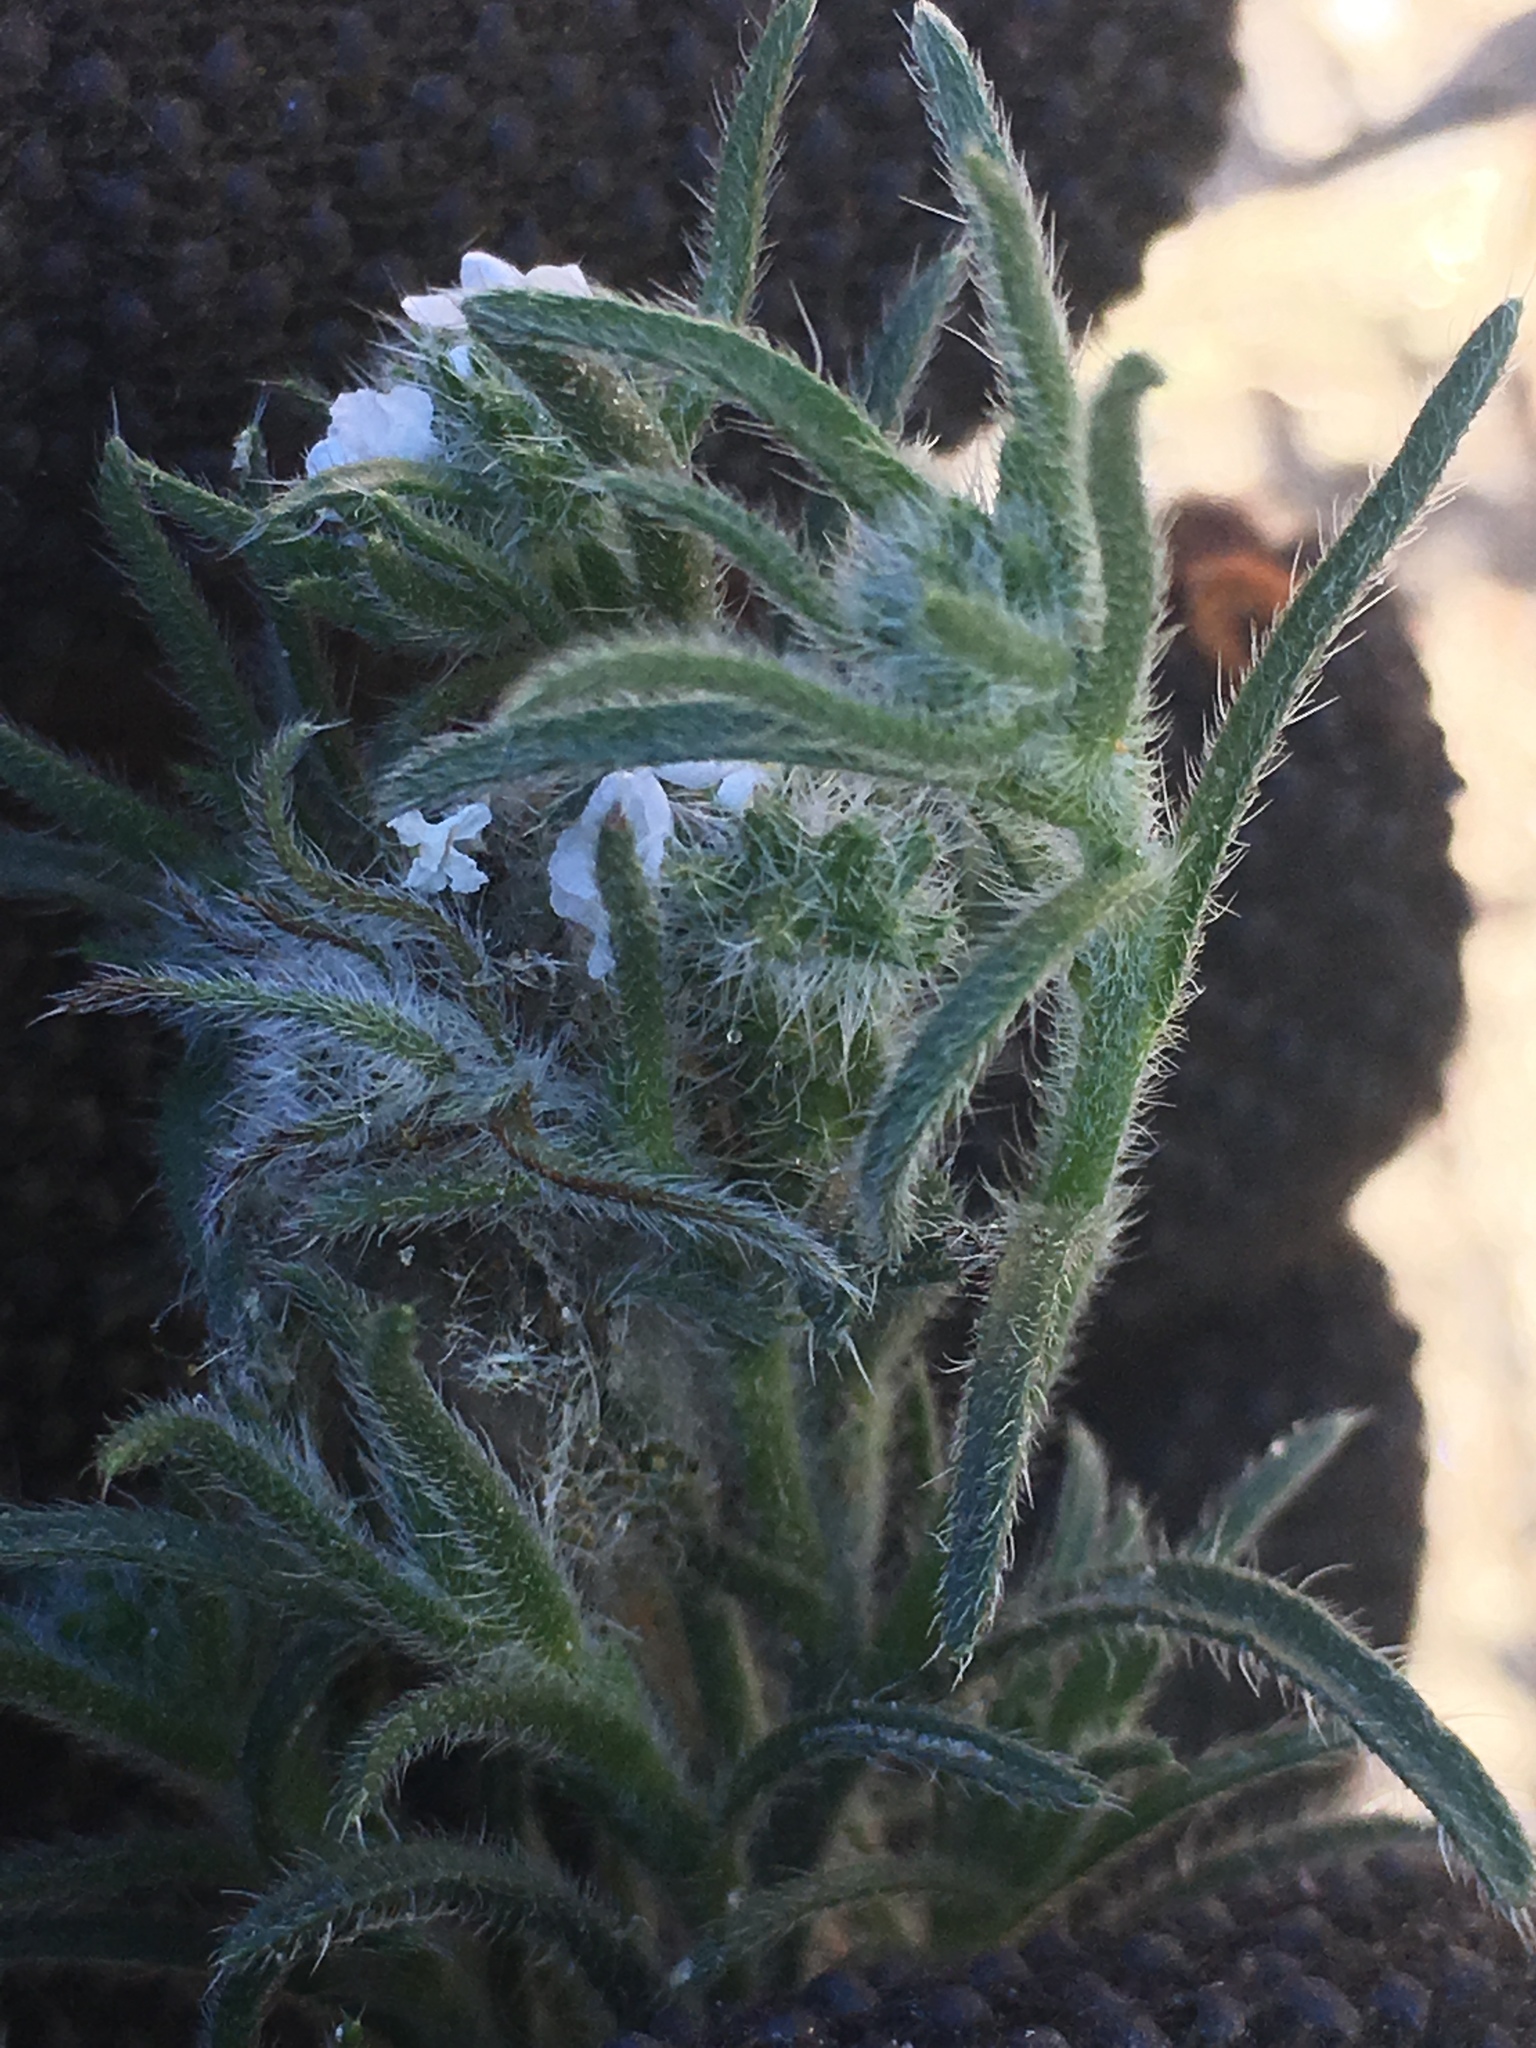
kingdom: Plantae
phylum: Tracheophyta
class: Magnoliopsida
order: Boraginales
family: Boraginaceae
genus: Johnstonella
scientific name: Johnstonella angustifolia
